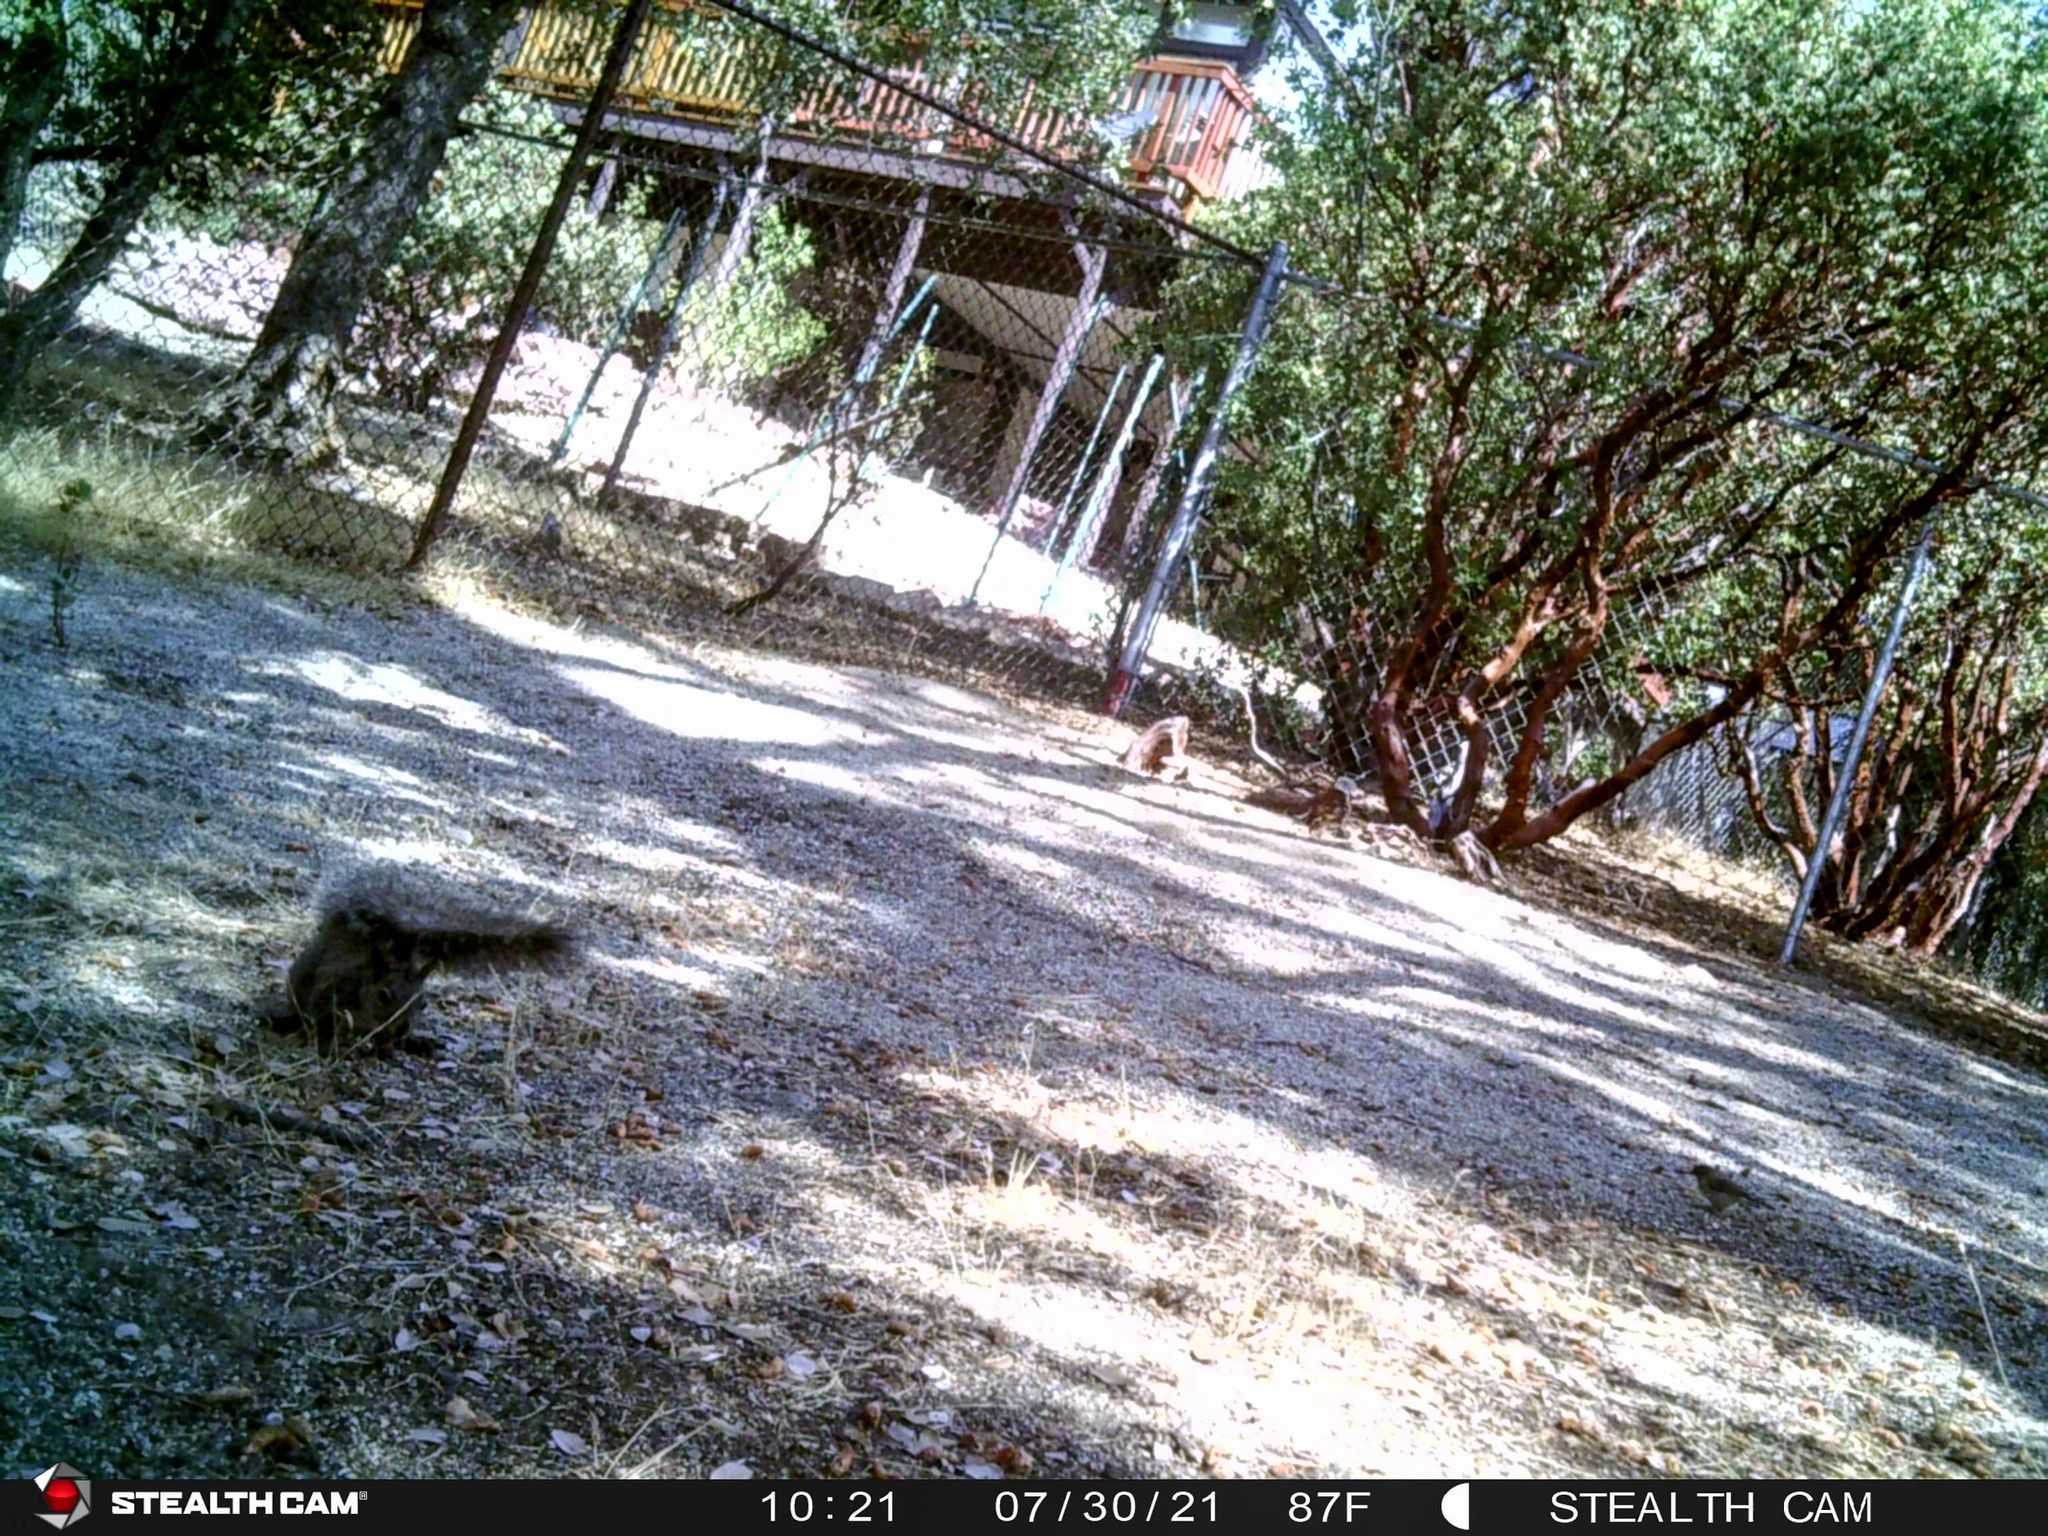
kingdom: Animalia
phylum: Chordata
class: Mammalia
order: Rodentia
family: Sciuridae
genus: Sciurus
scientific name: Sciurus griseus
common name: Western gray squirrel
